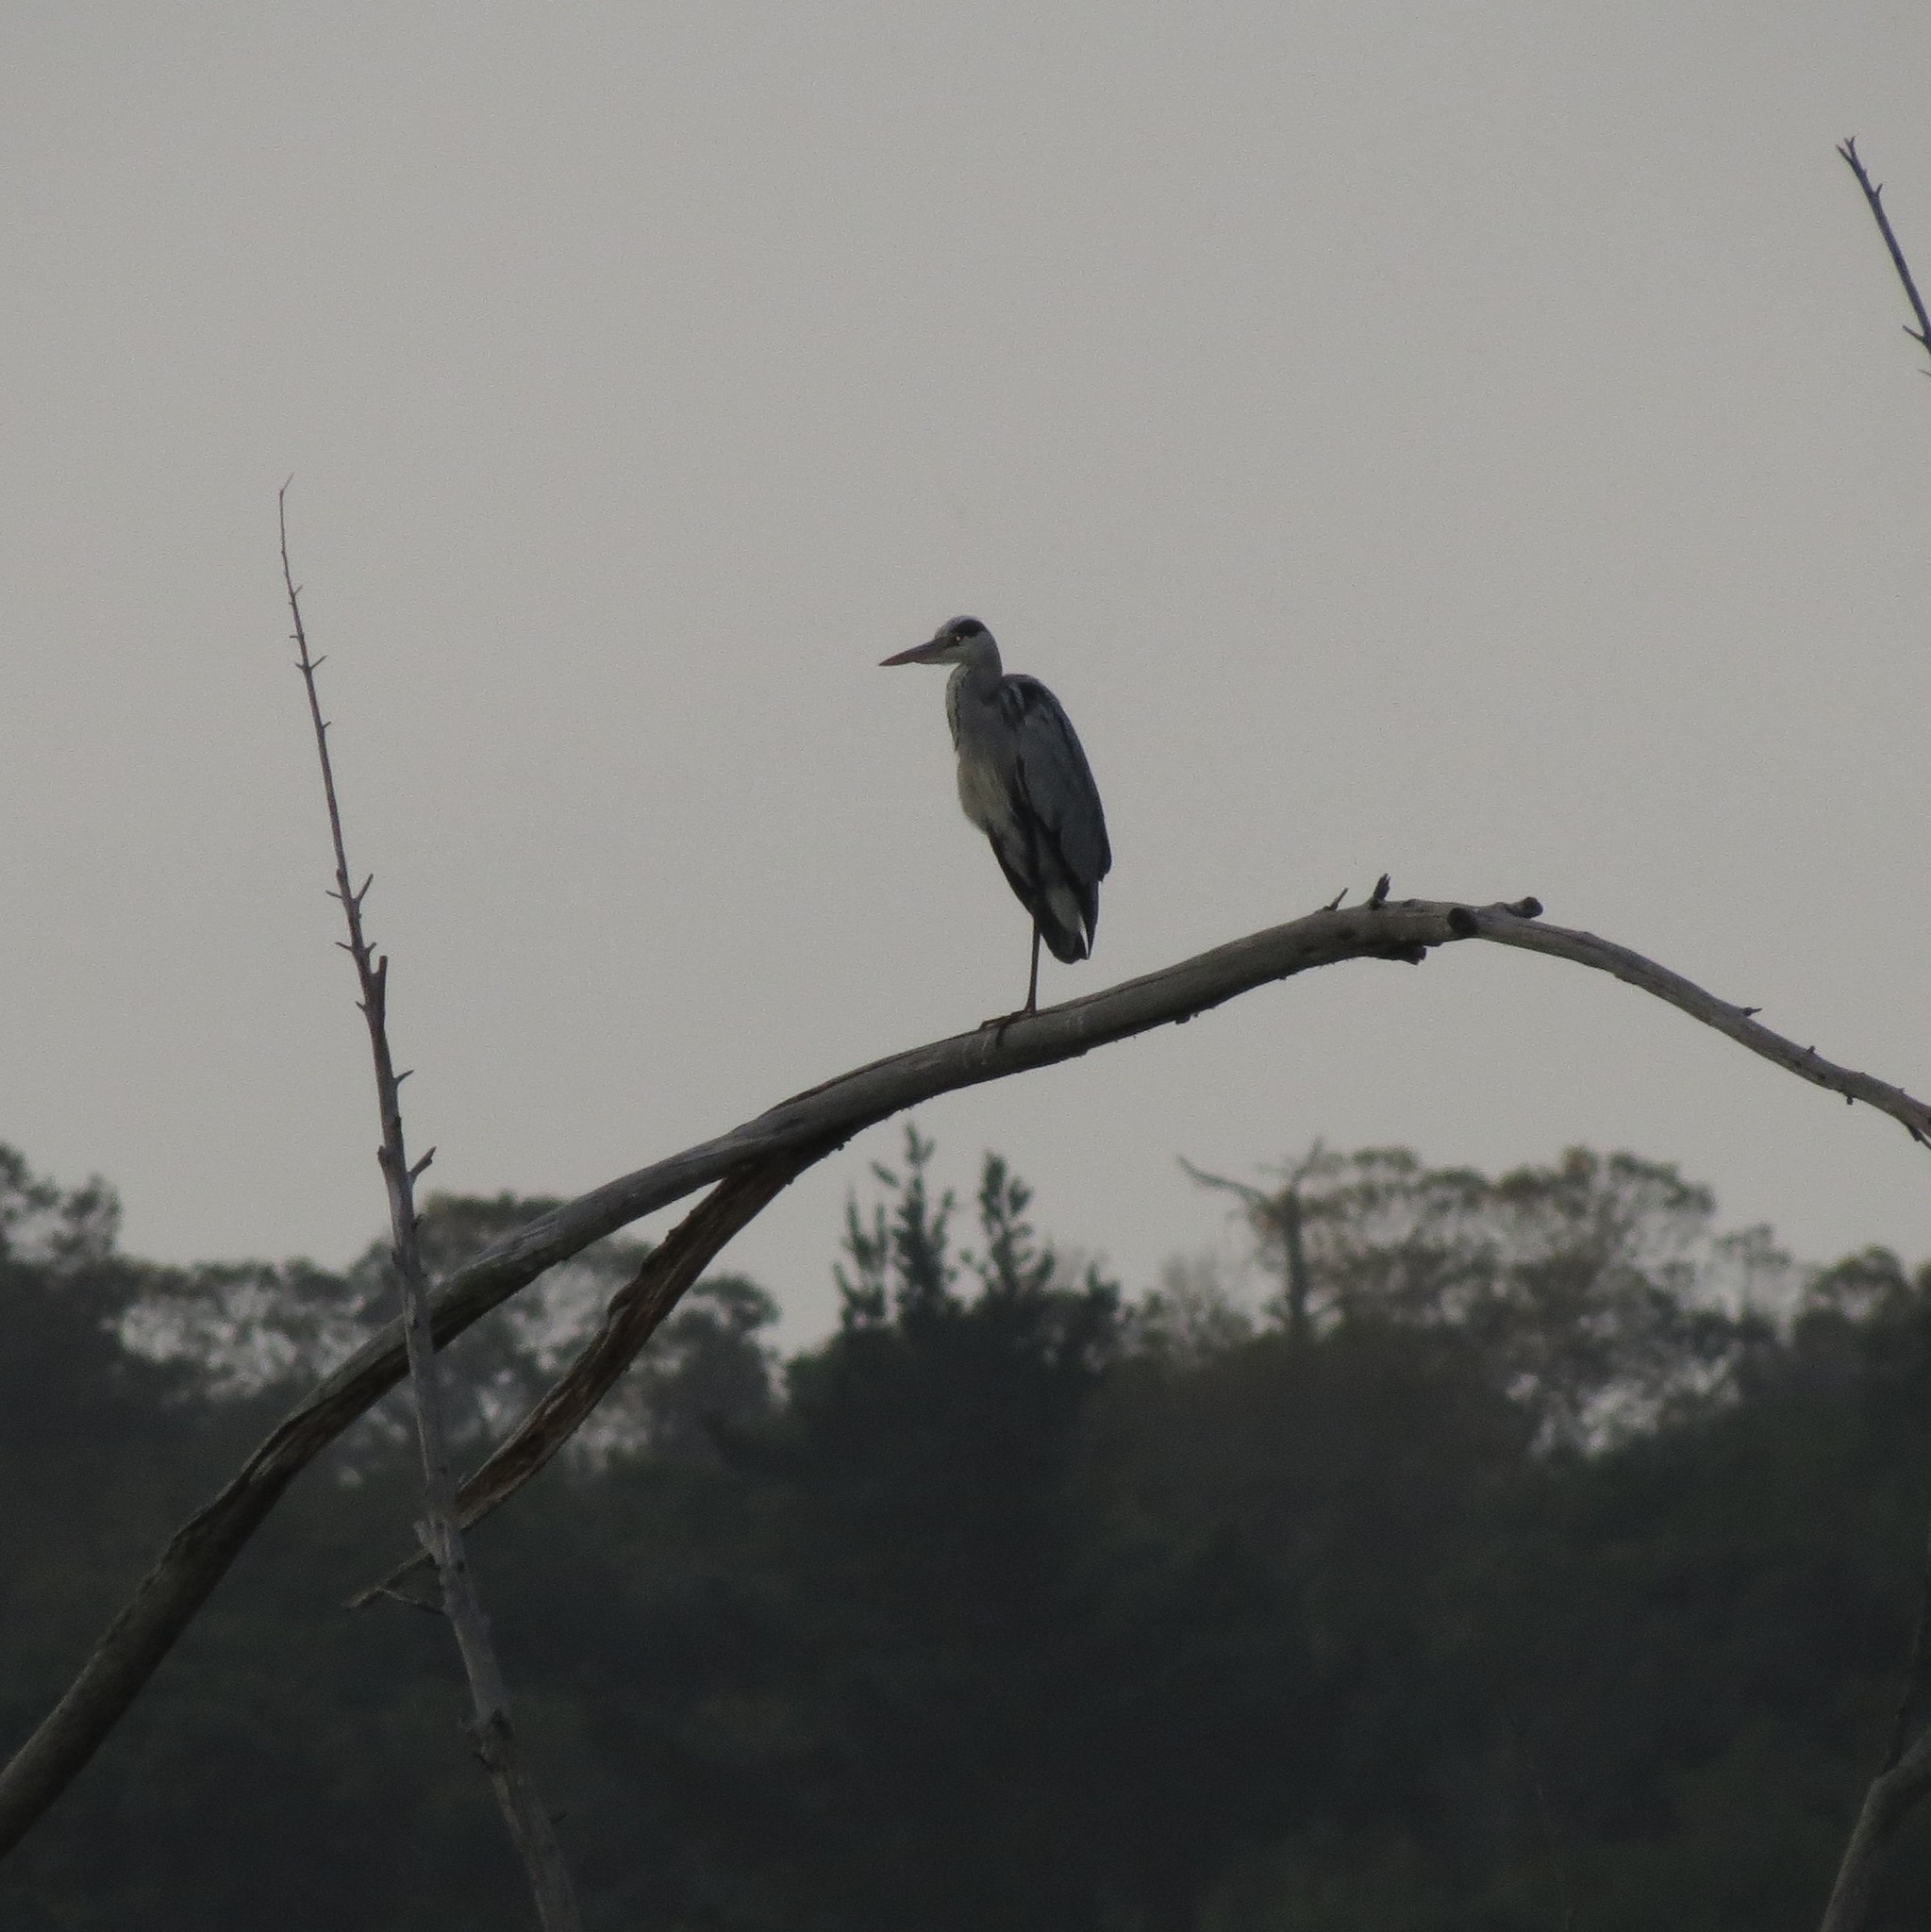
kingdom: Animalia
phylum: Chordata
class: Aves
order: Pelecaniformes
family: Ardeidae
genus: Ardea
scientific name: Ardea cinerea
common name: Grey heron
